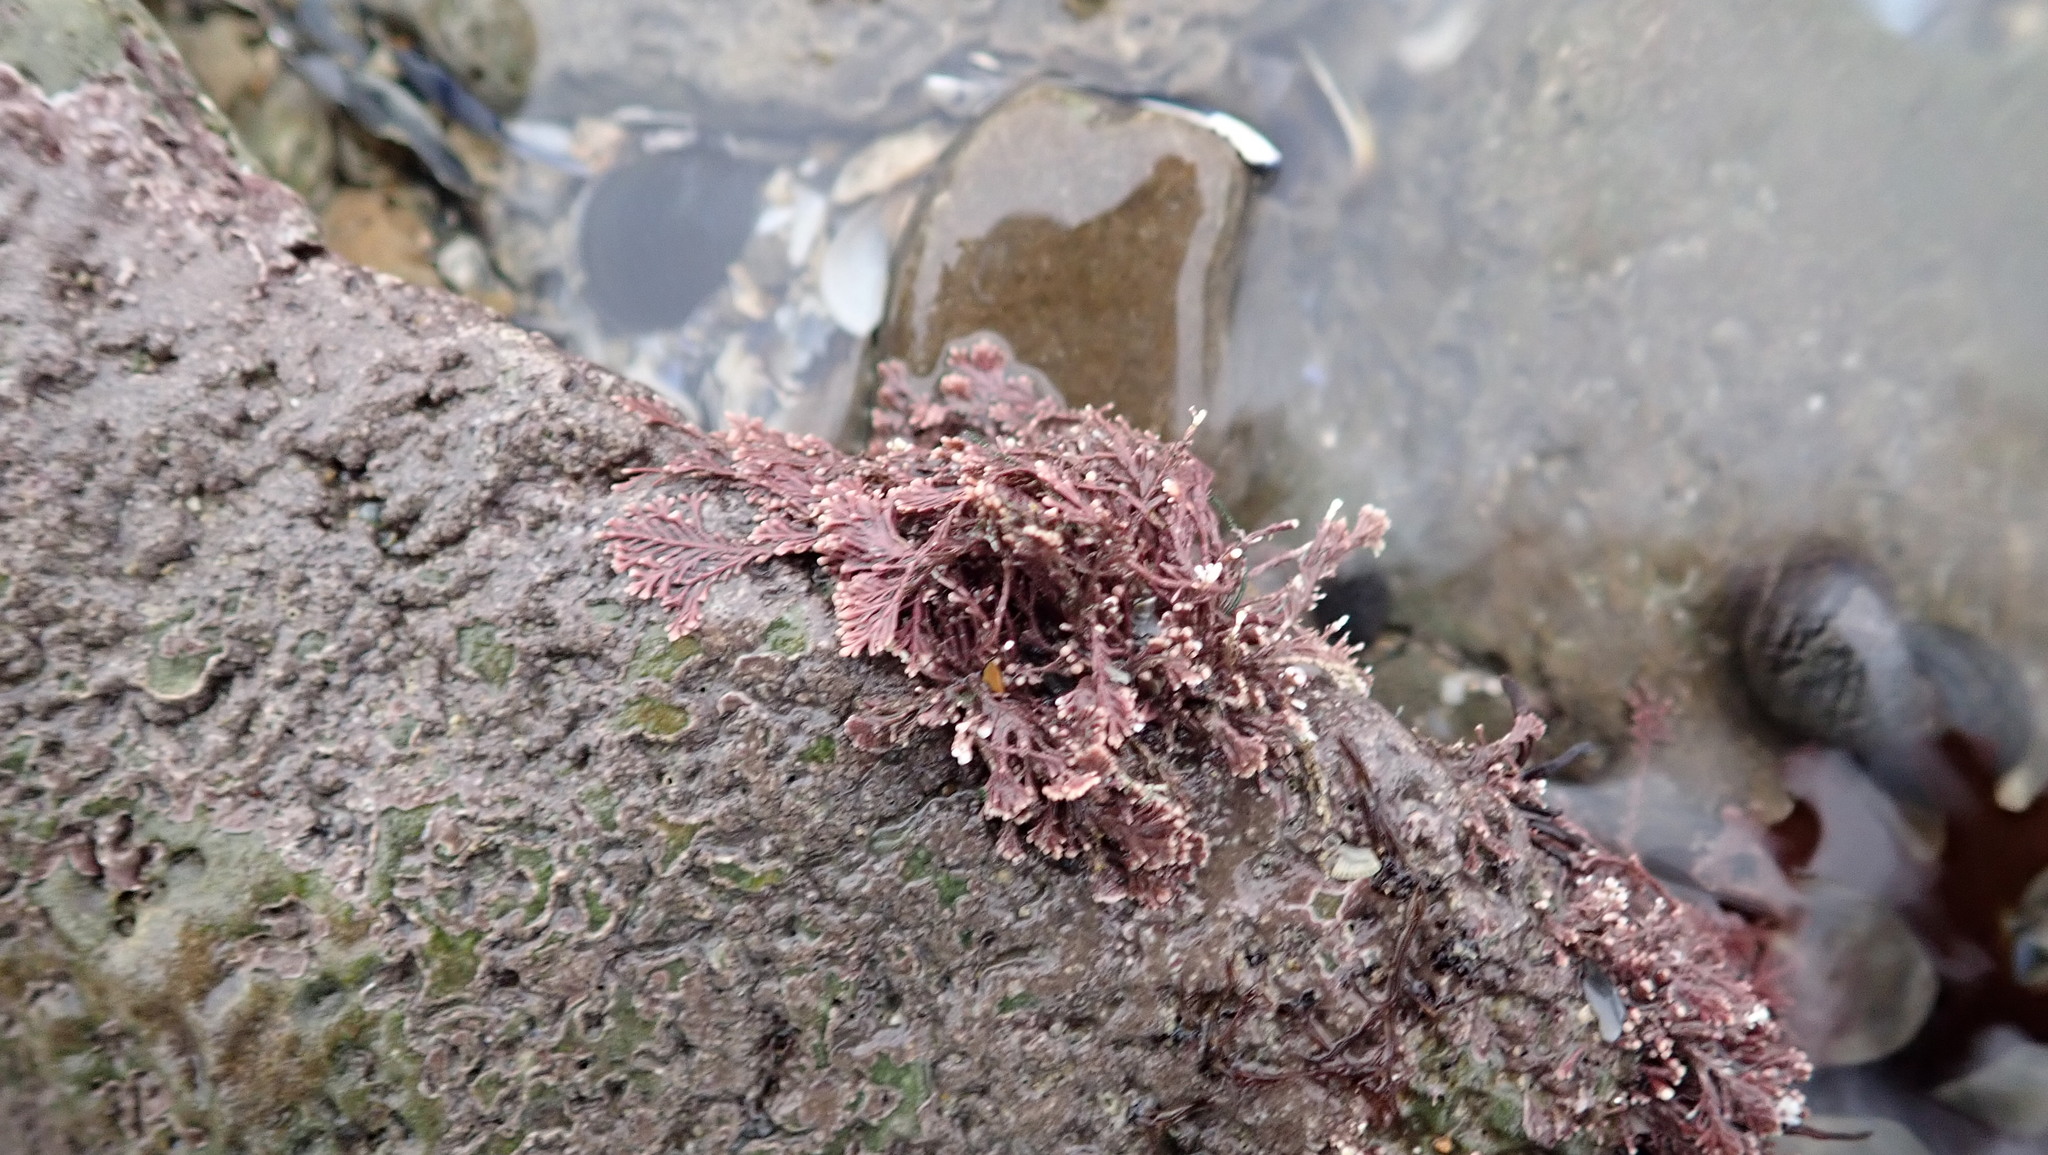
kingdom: Plantae
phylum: Rhodophyta
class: Florideophyceae
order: Corallinales
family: Corallinaceae
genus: Corallina
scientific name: Corallina officinalis
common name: Coral weed
